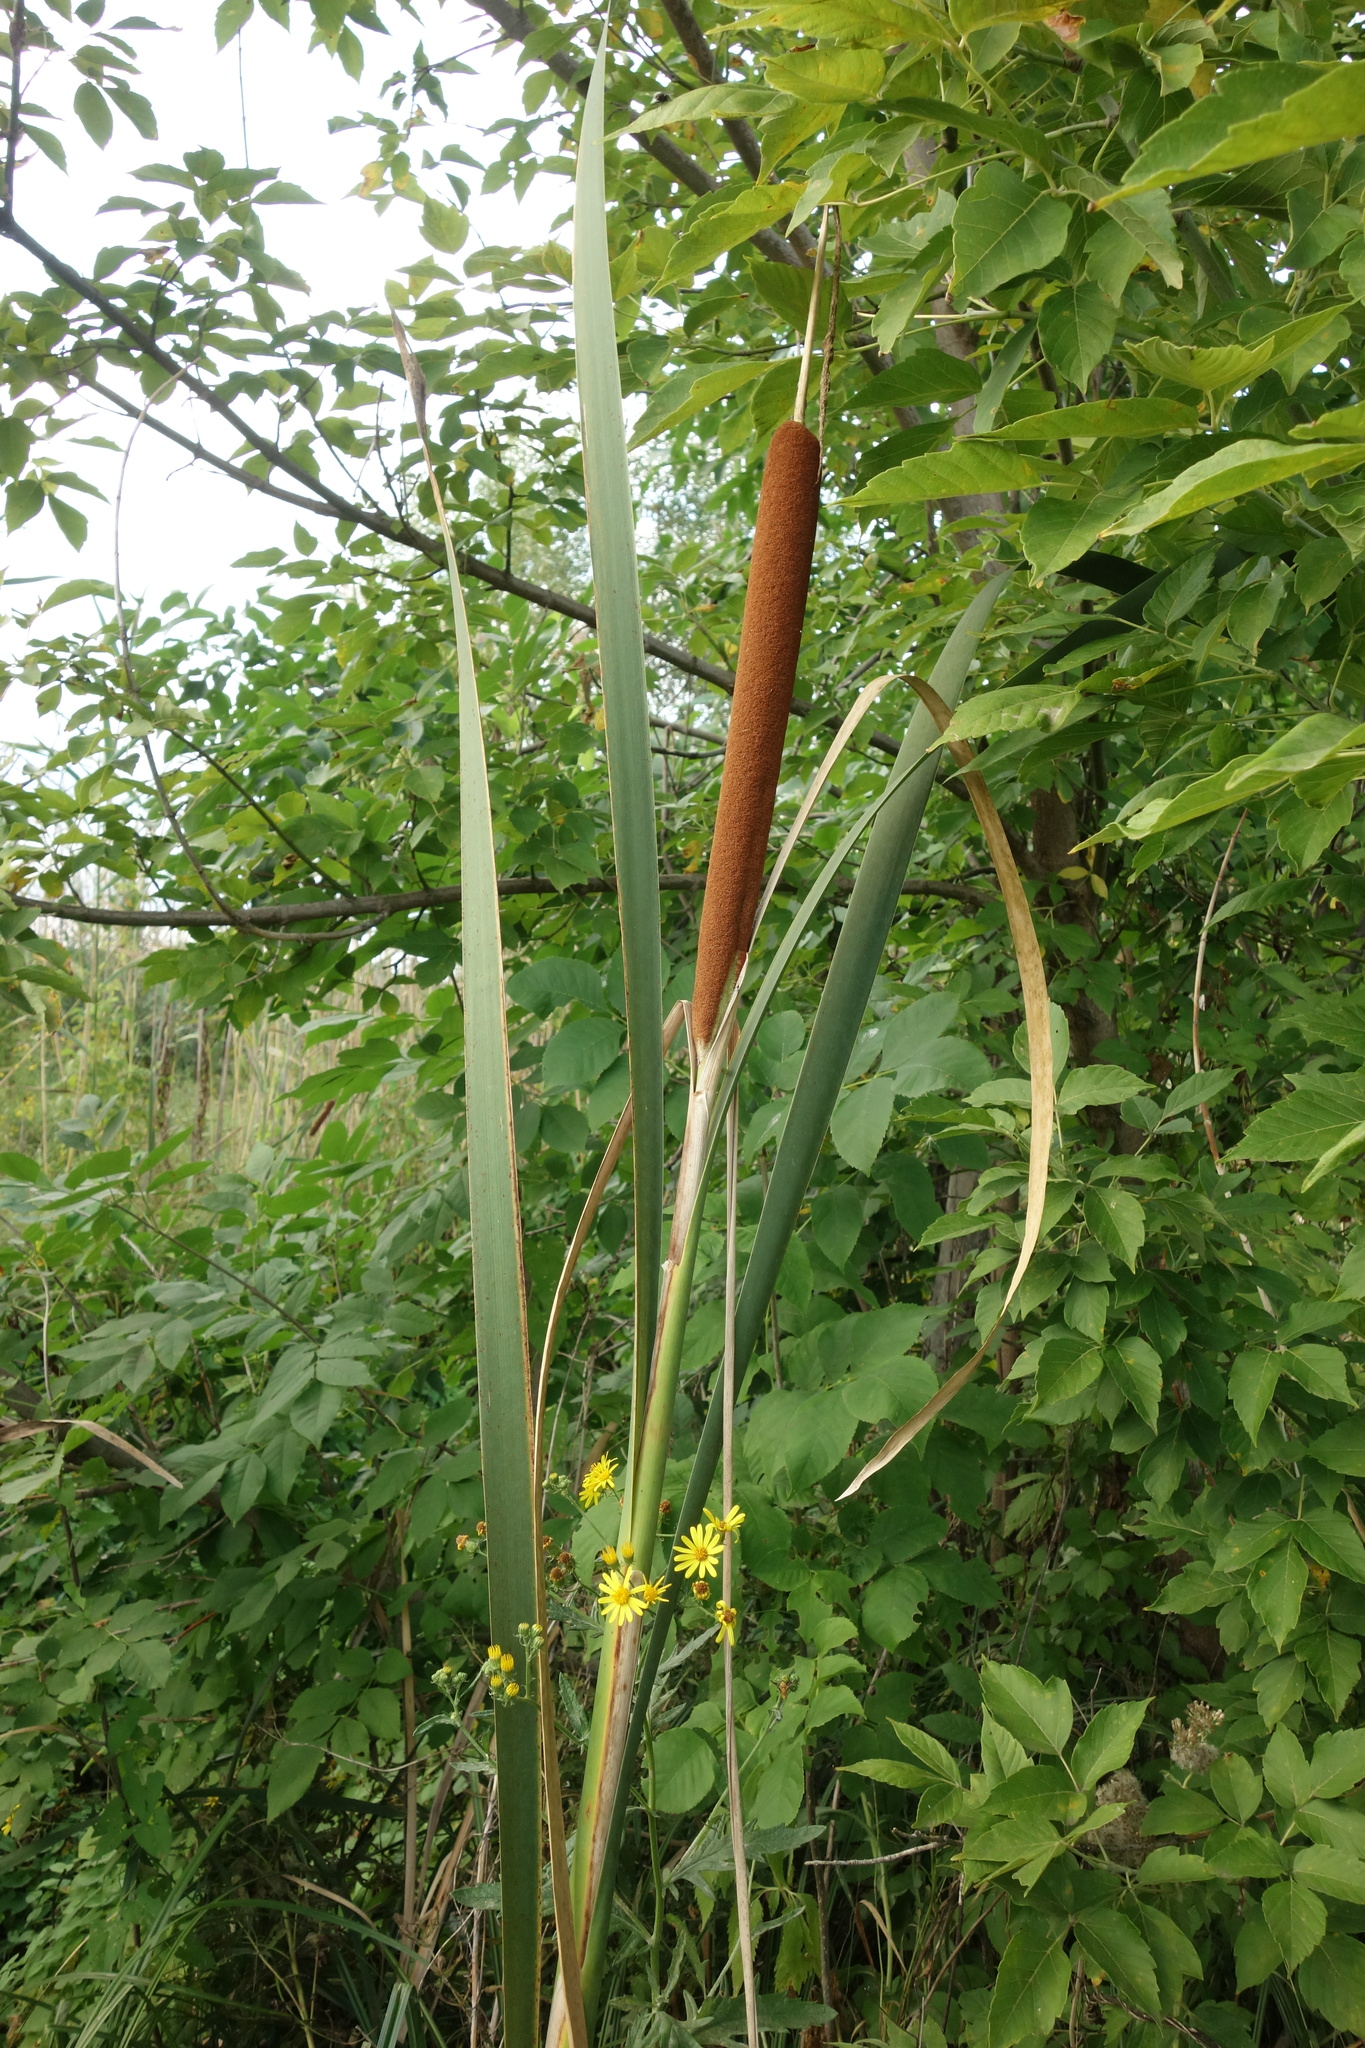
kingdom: Plantae
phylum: Tracheophyta
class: Liliopsida
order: Poales
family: Typhaceae
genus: Typha
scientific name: Typha latifolia
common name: Broadleaf cattail
